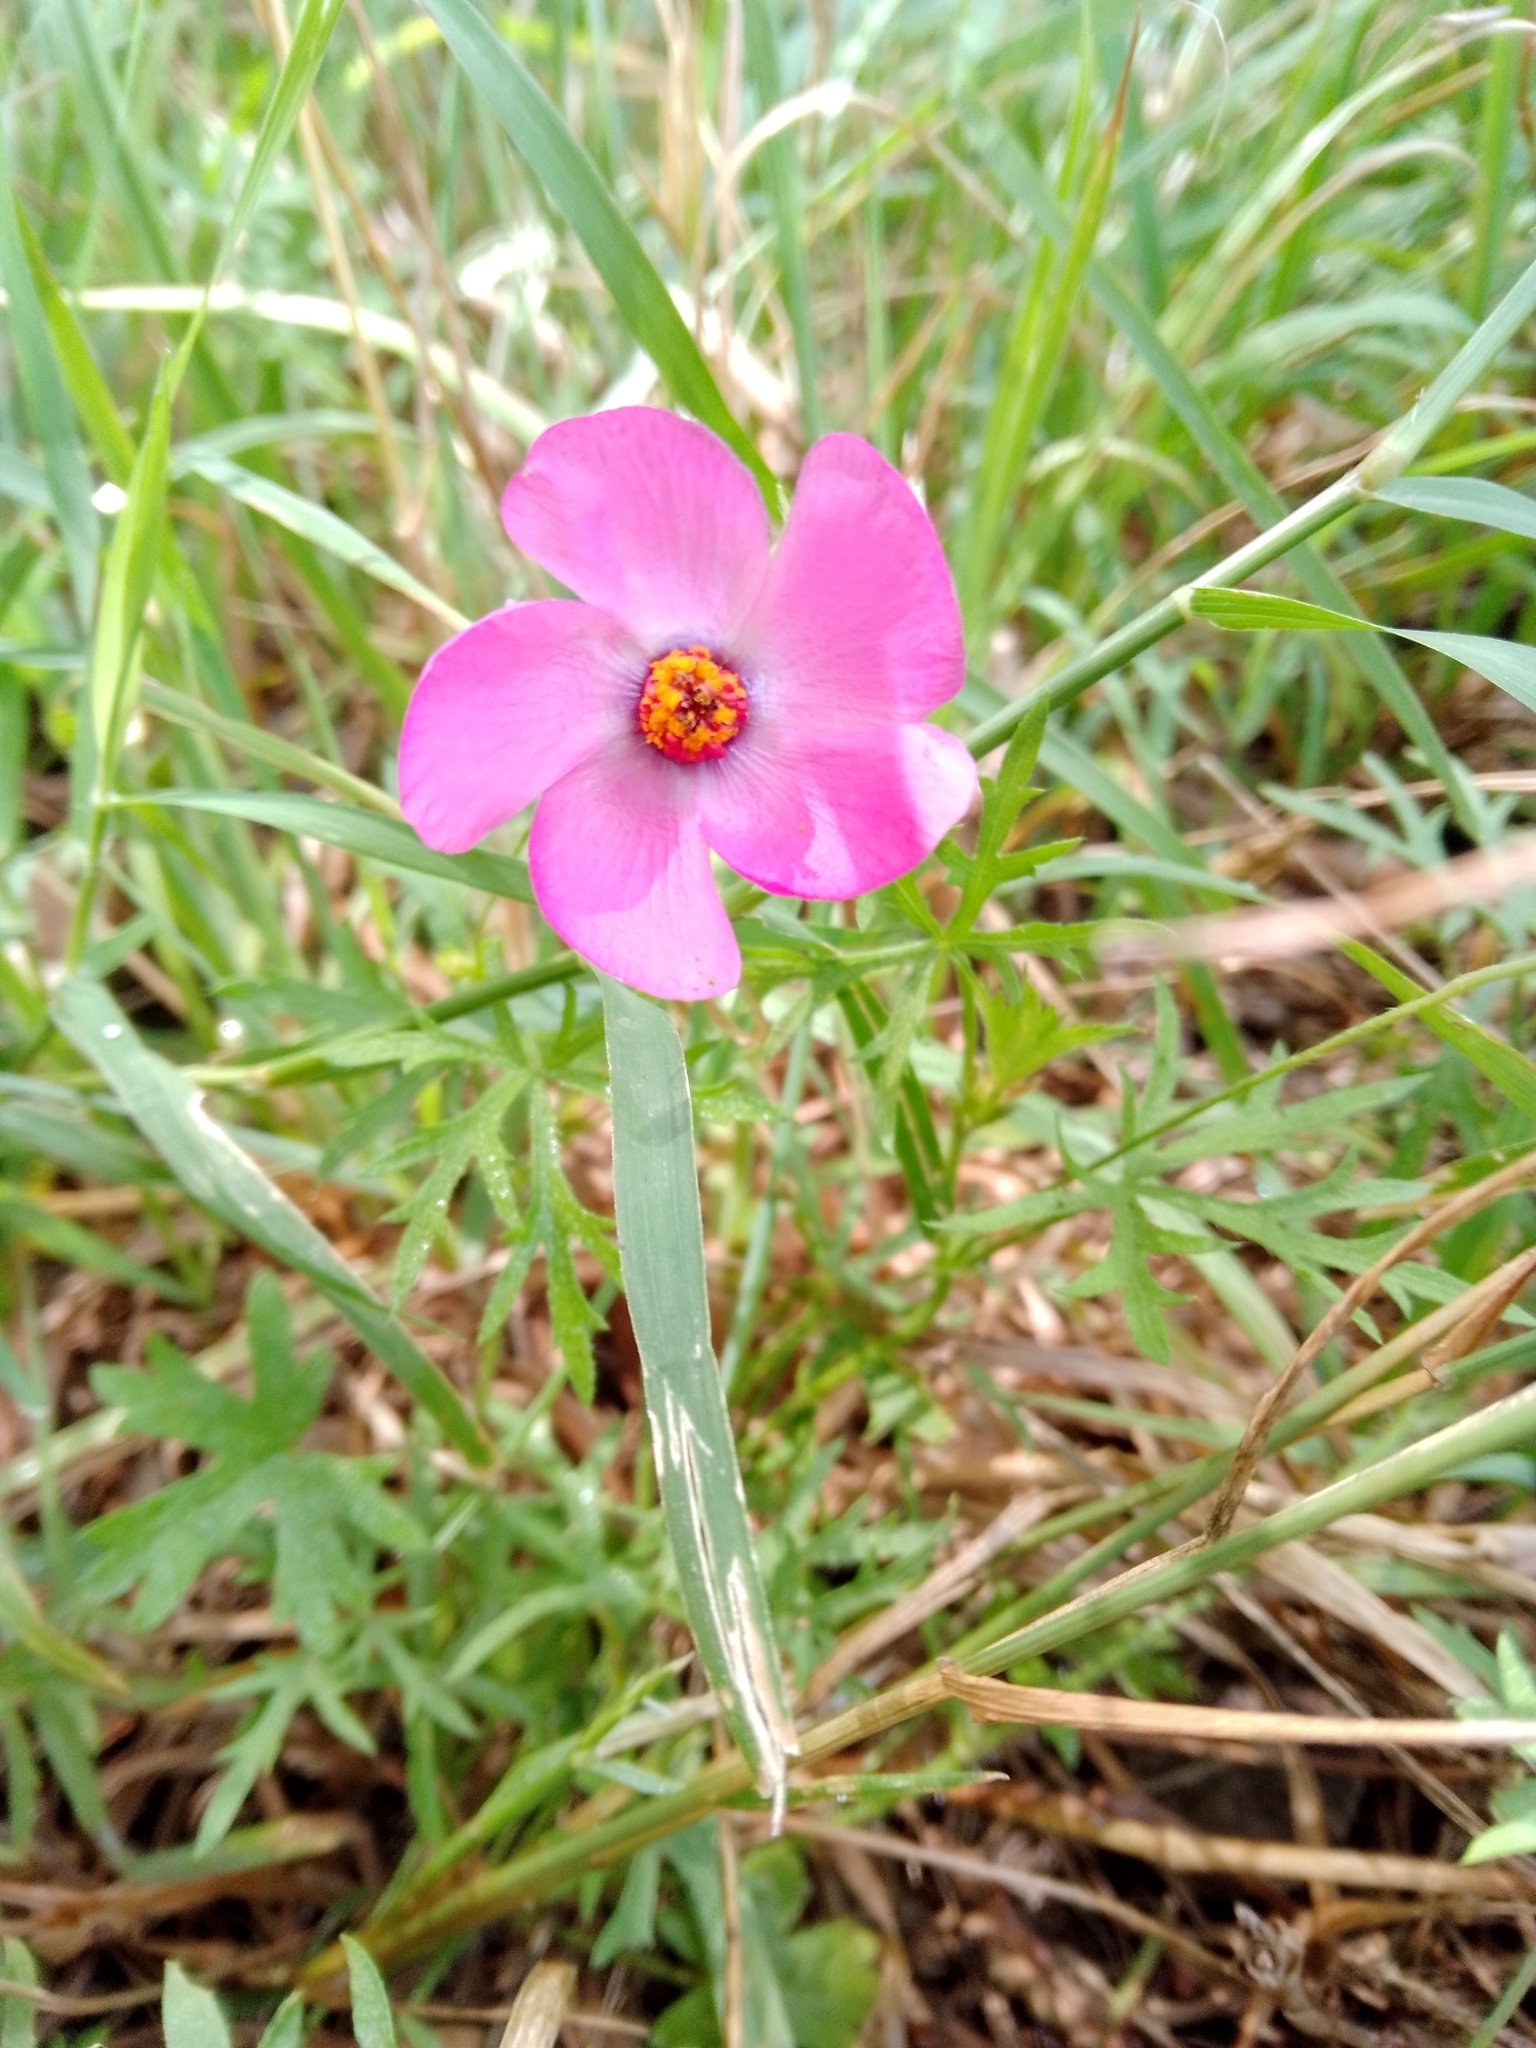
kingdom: Plantae
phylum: Tracheophyta
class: Magnoliopsida
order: Malvales
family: Malvaceae
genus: Modiolastrum
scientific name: Modiolastrum gilliesii
